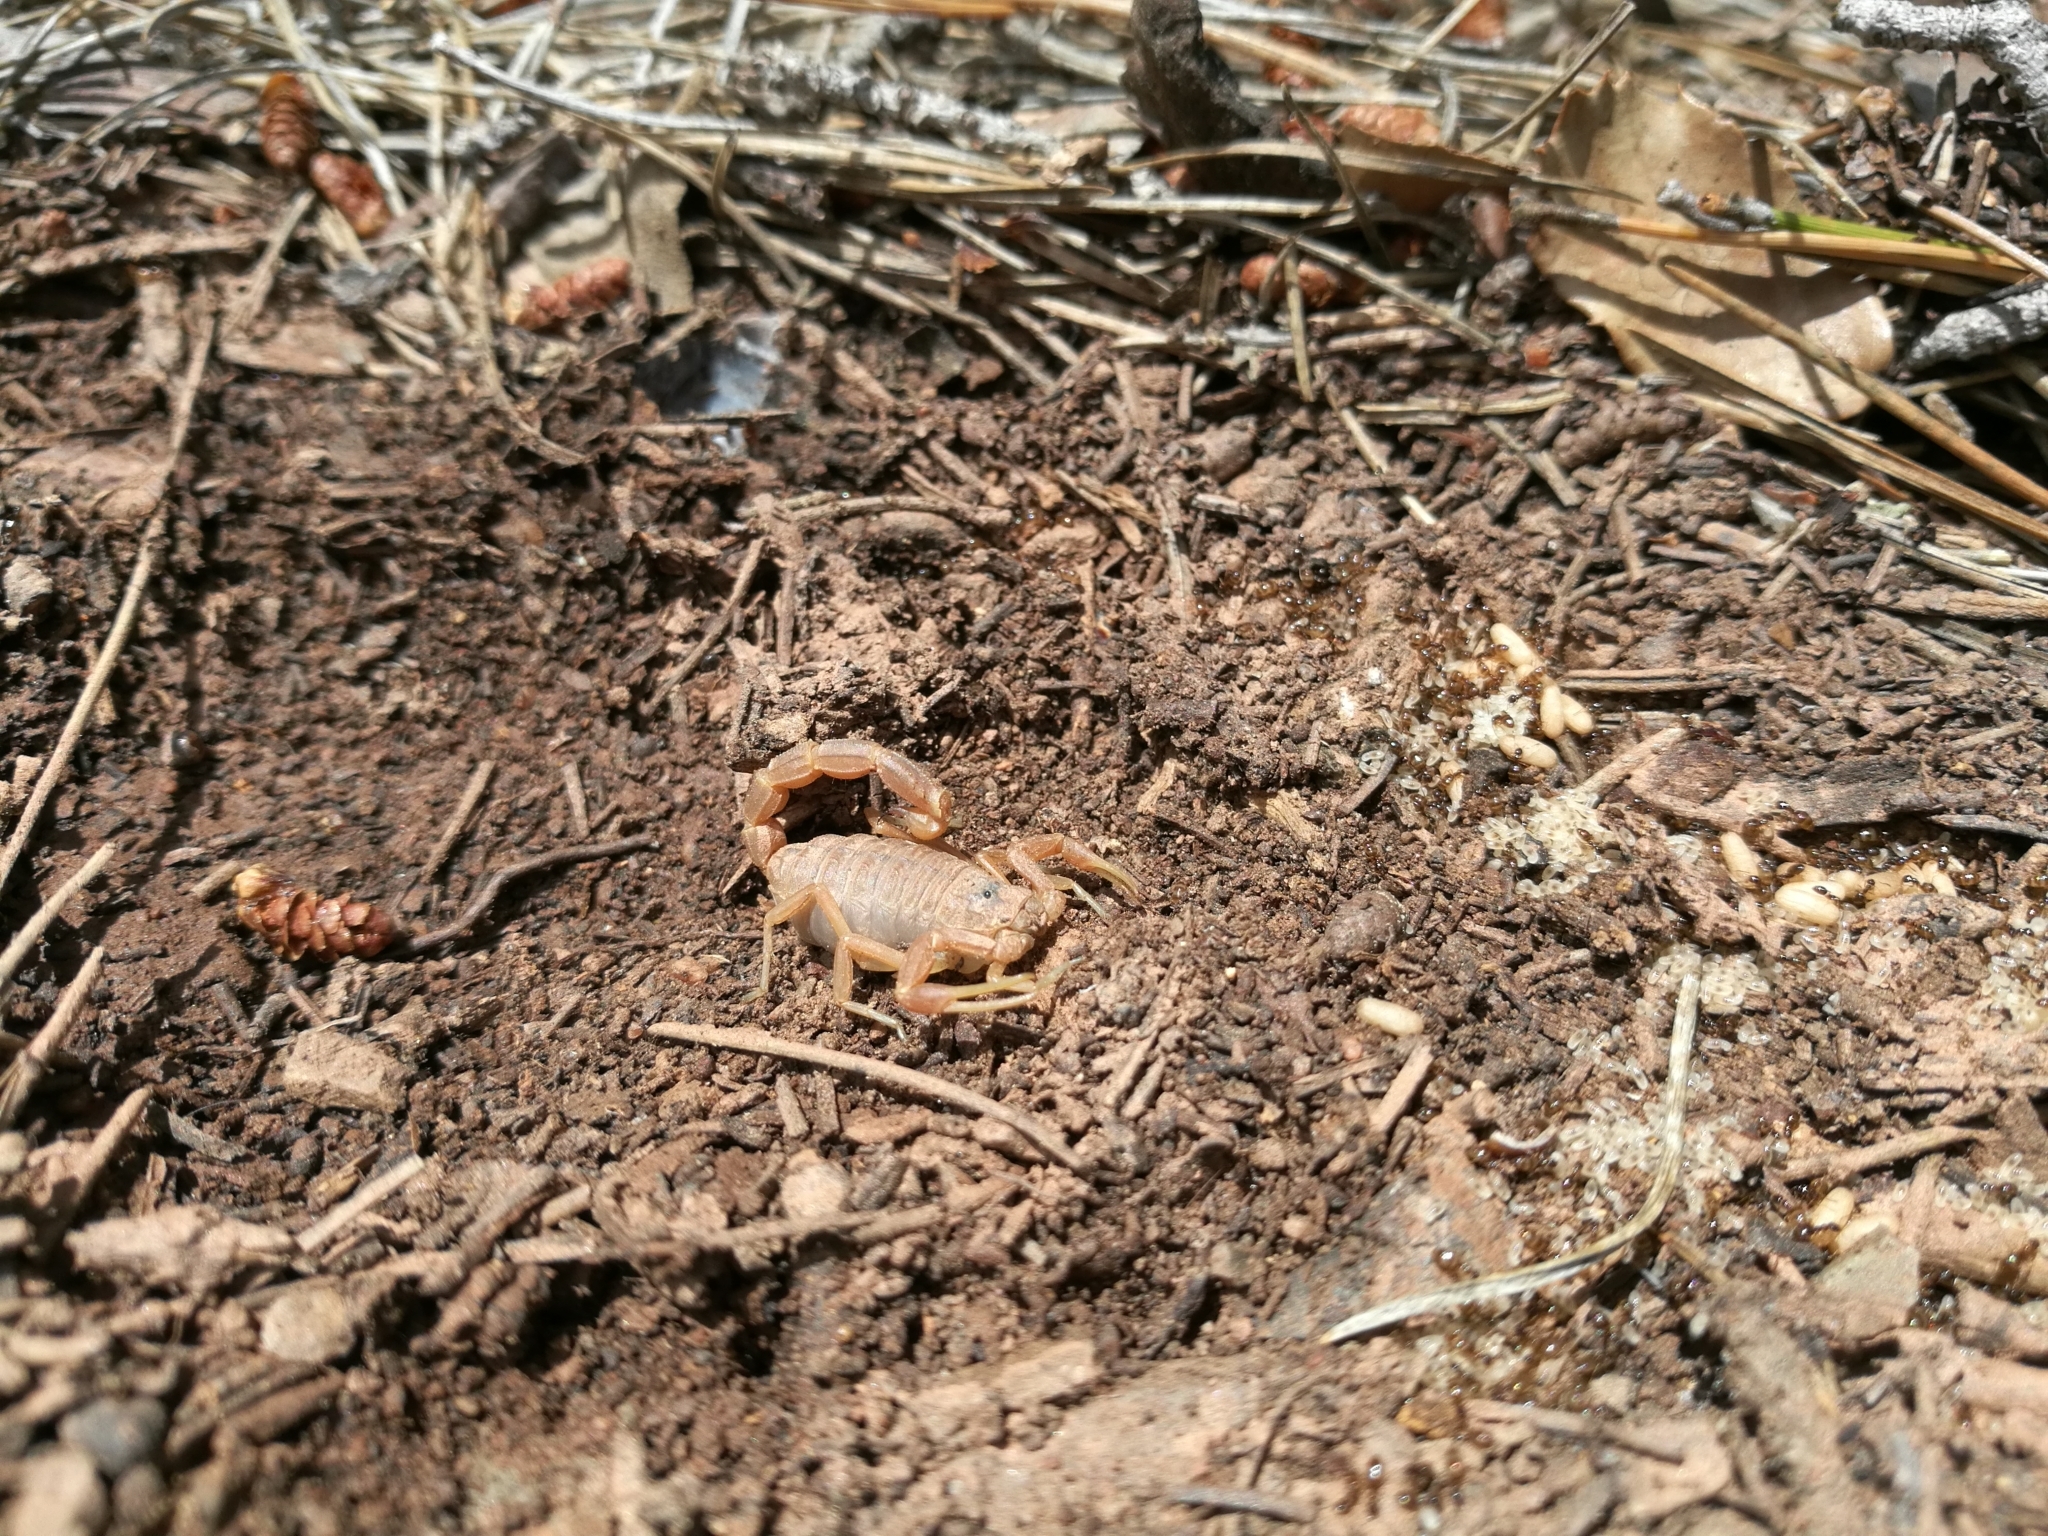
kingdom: Animalia
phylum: Arthropoda
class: Arachnida
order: Scorpiones
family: Buthidae
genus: Buthus
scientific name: Buthus occitanus
